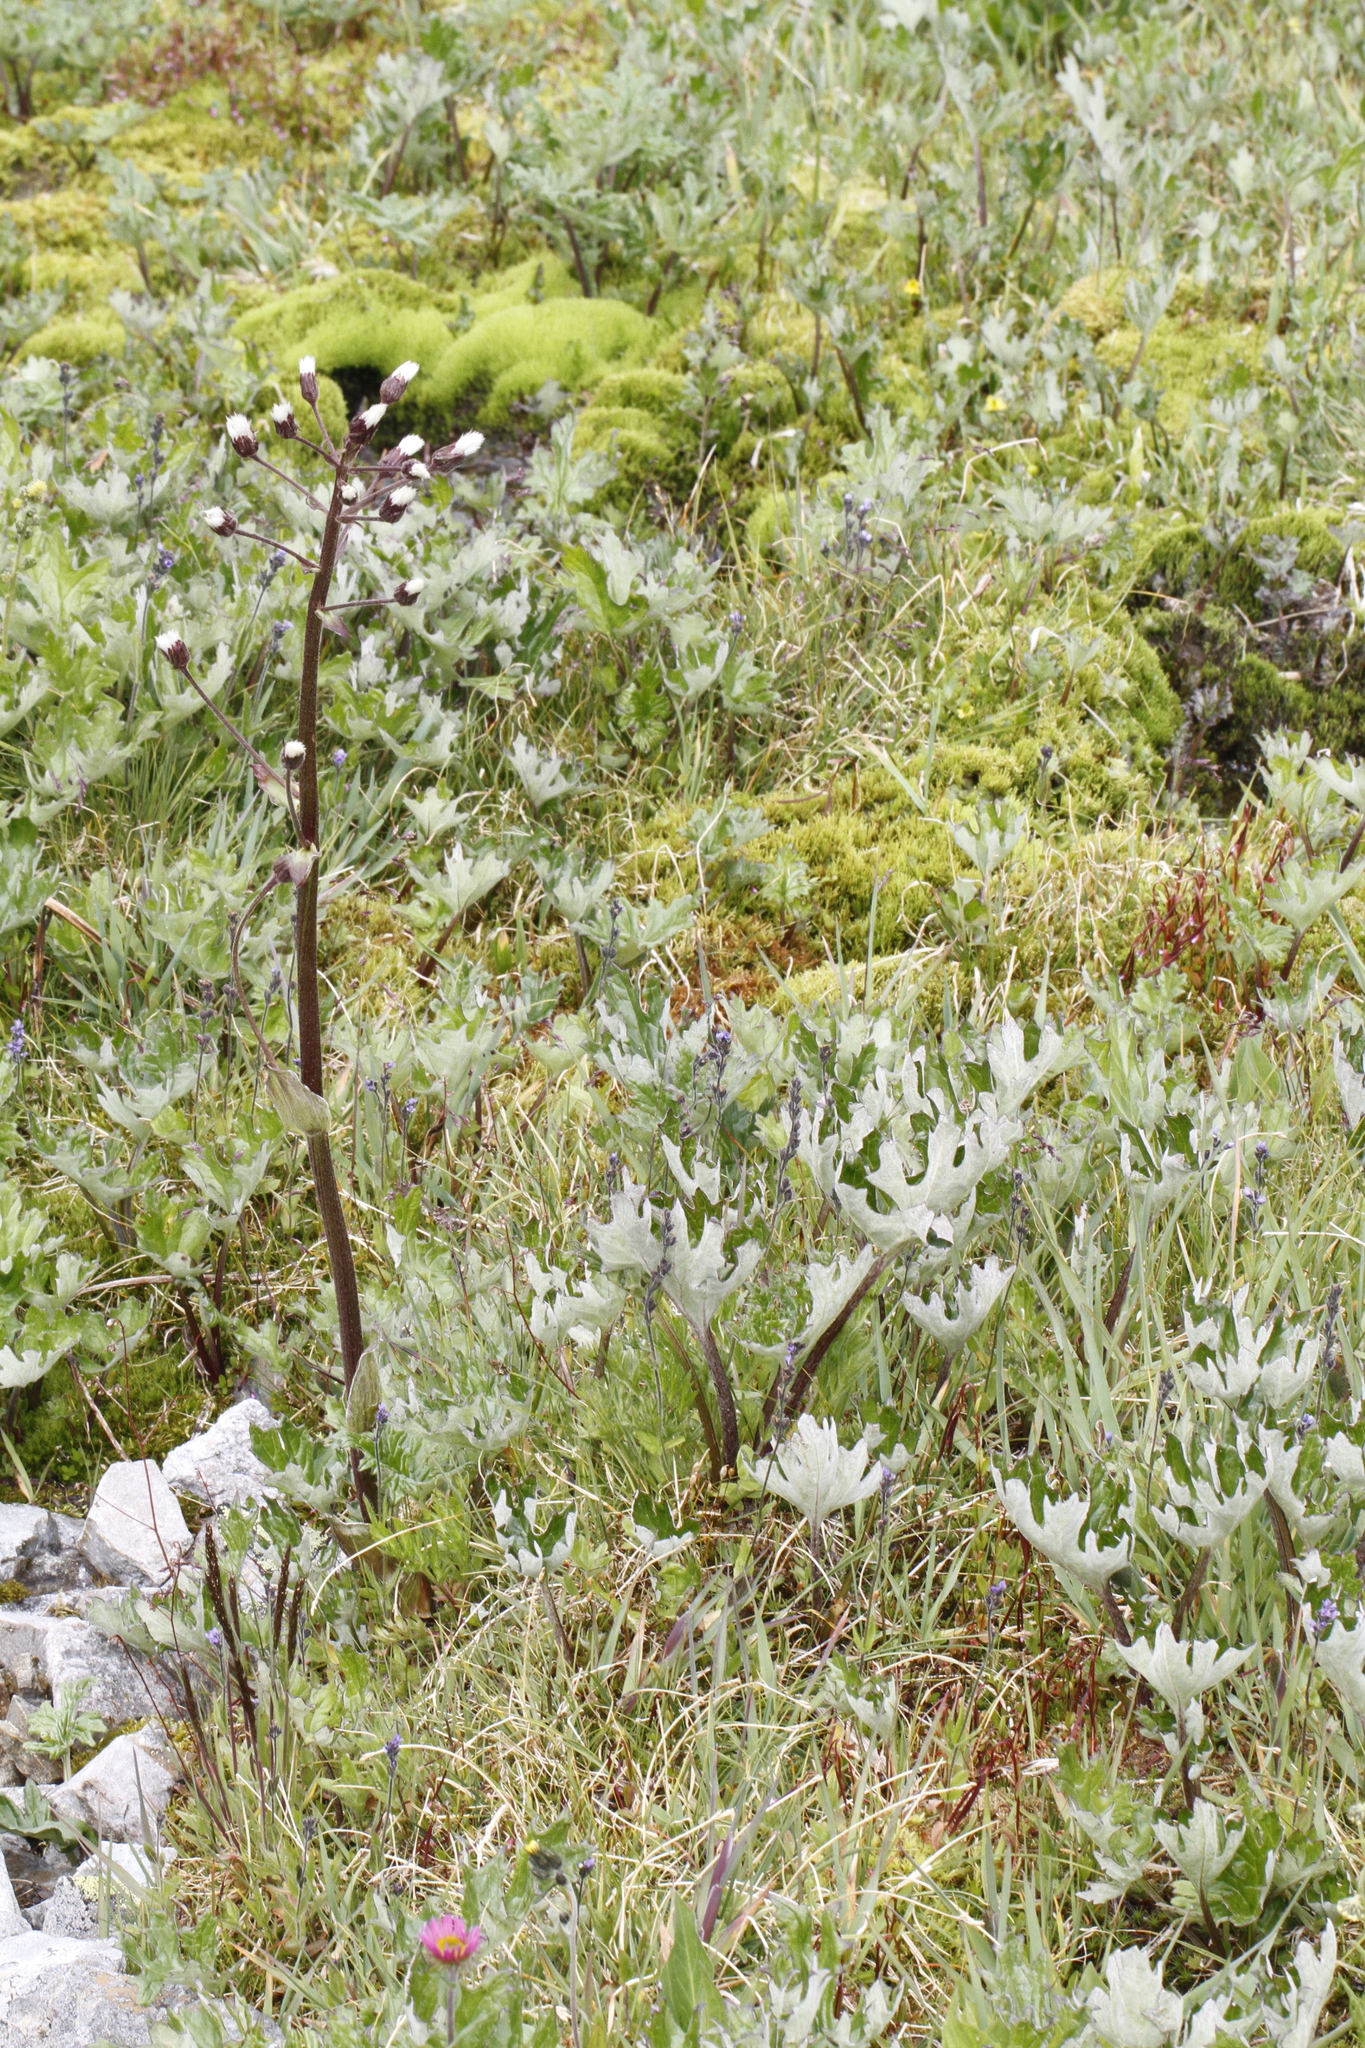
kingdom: Plantae
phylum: Tracheophyta
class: Magnoliopsida
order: Asterales
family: Asteraceae
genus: Petasites
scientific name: Petasites frigidus
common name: Arctic butterbur
